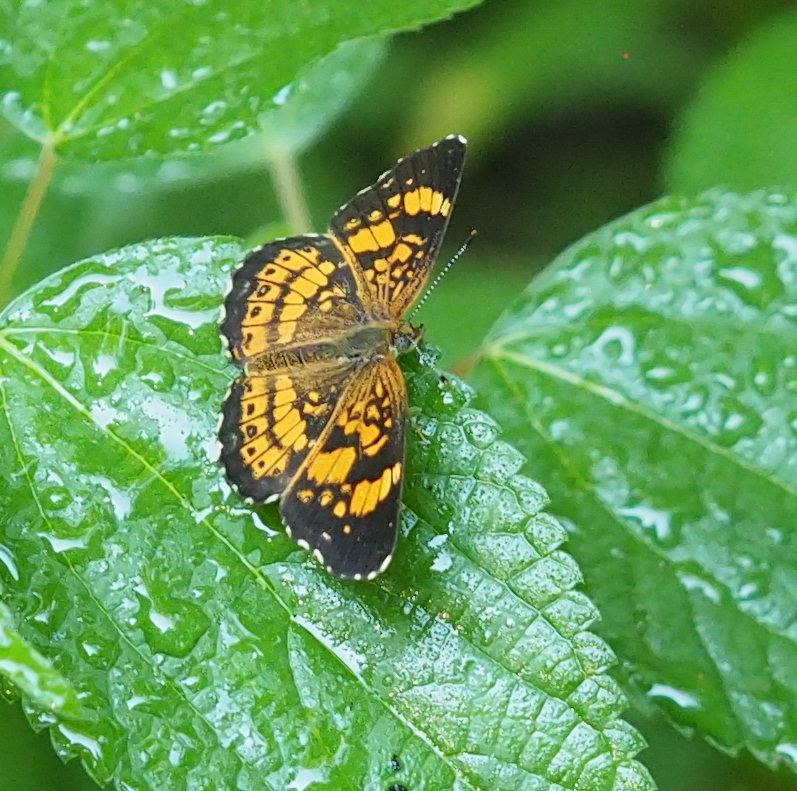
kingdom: Animalia
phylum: Arthropoda
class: Insecta
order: Lepidoptera
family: Nymphalidae
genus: Chlosyne
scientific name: Chlosyne nycteis
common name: Silvery checkerspot
